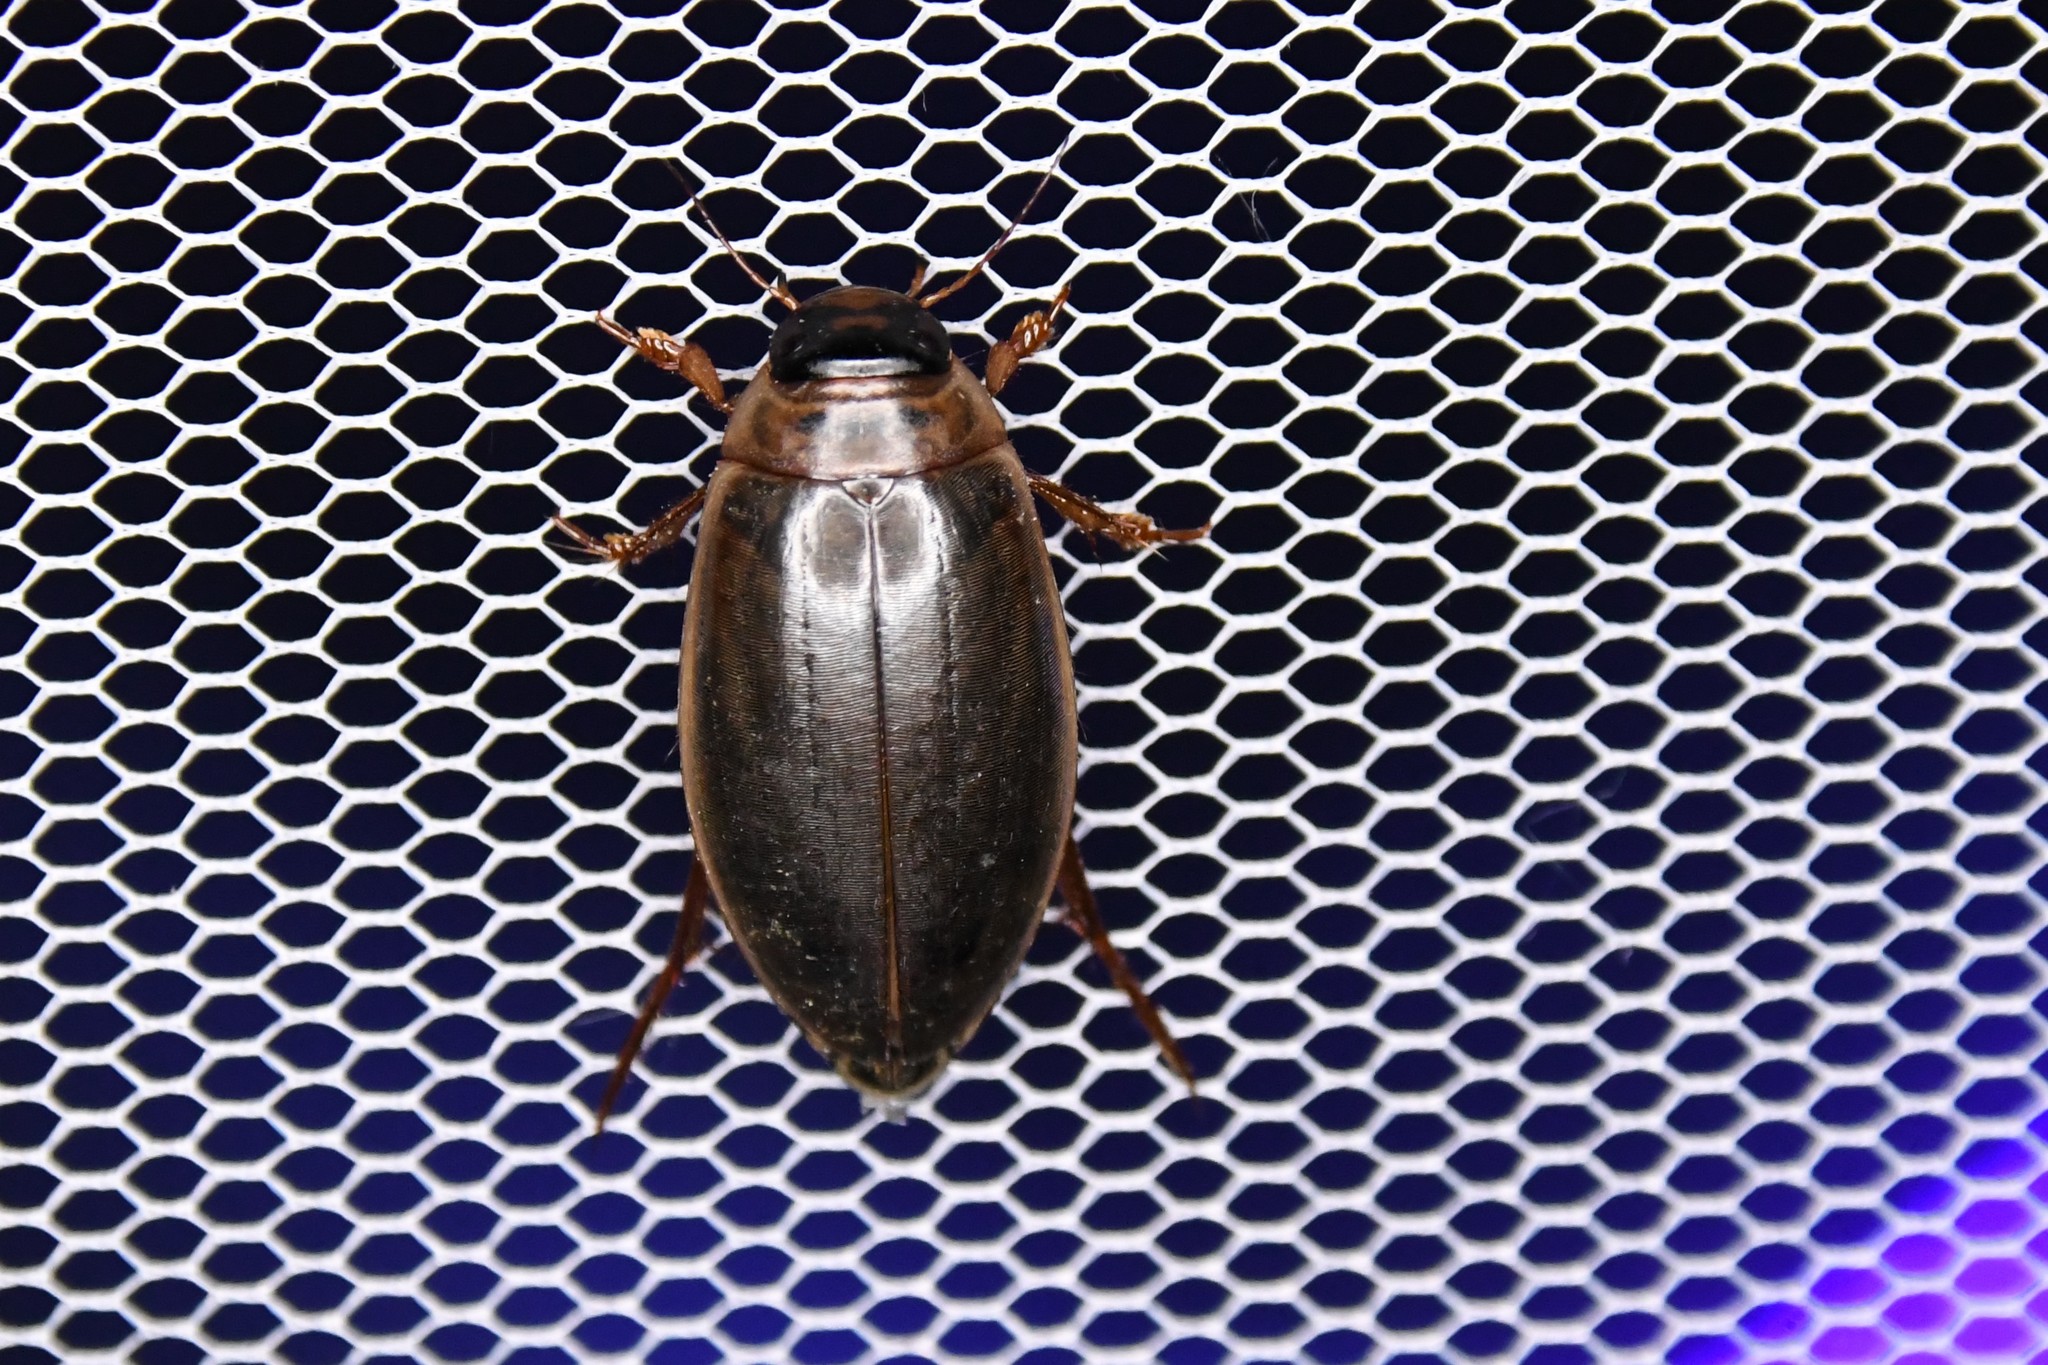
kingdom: Animalia
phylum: Arthropoda
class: Insecta
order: Coleoptera
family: Dytiscidae
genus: Colymbetes
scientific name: Colymbetes sculptilis
